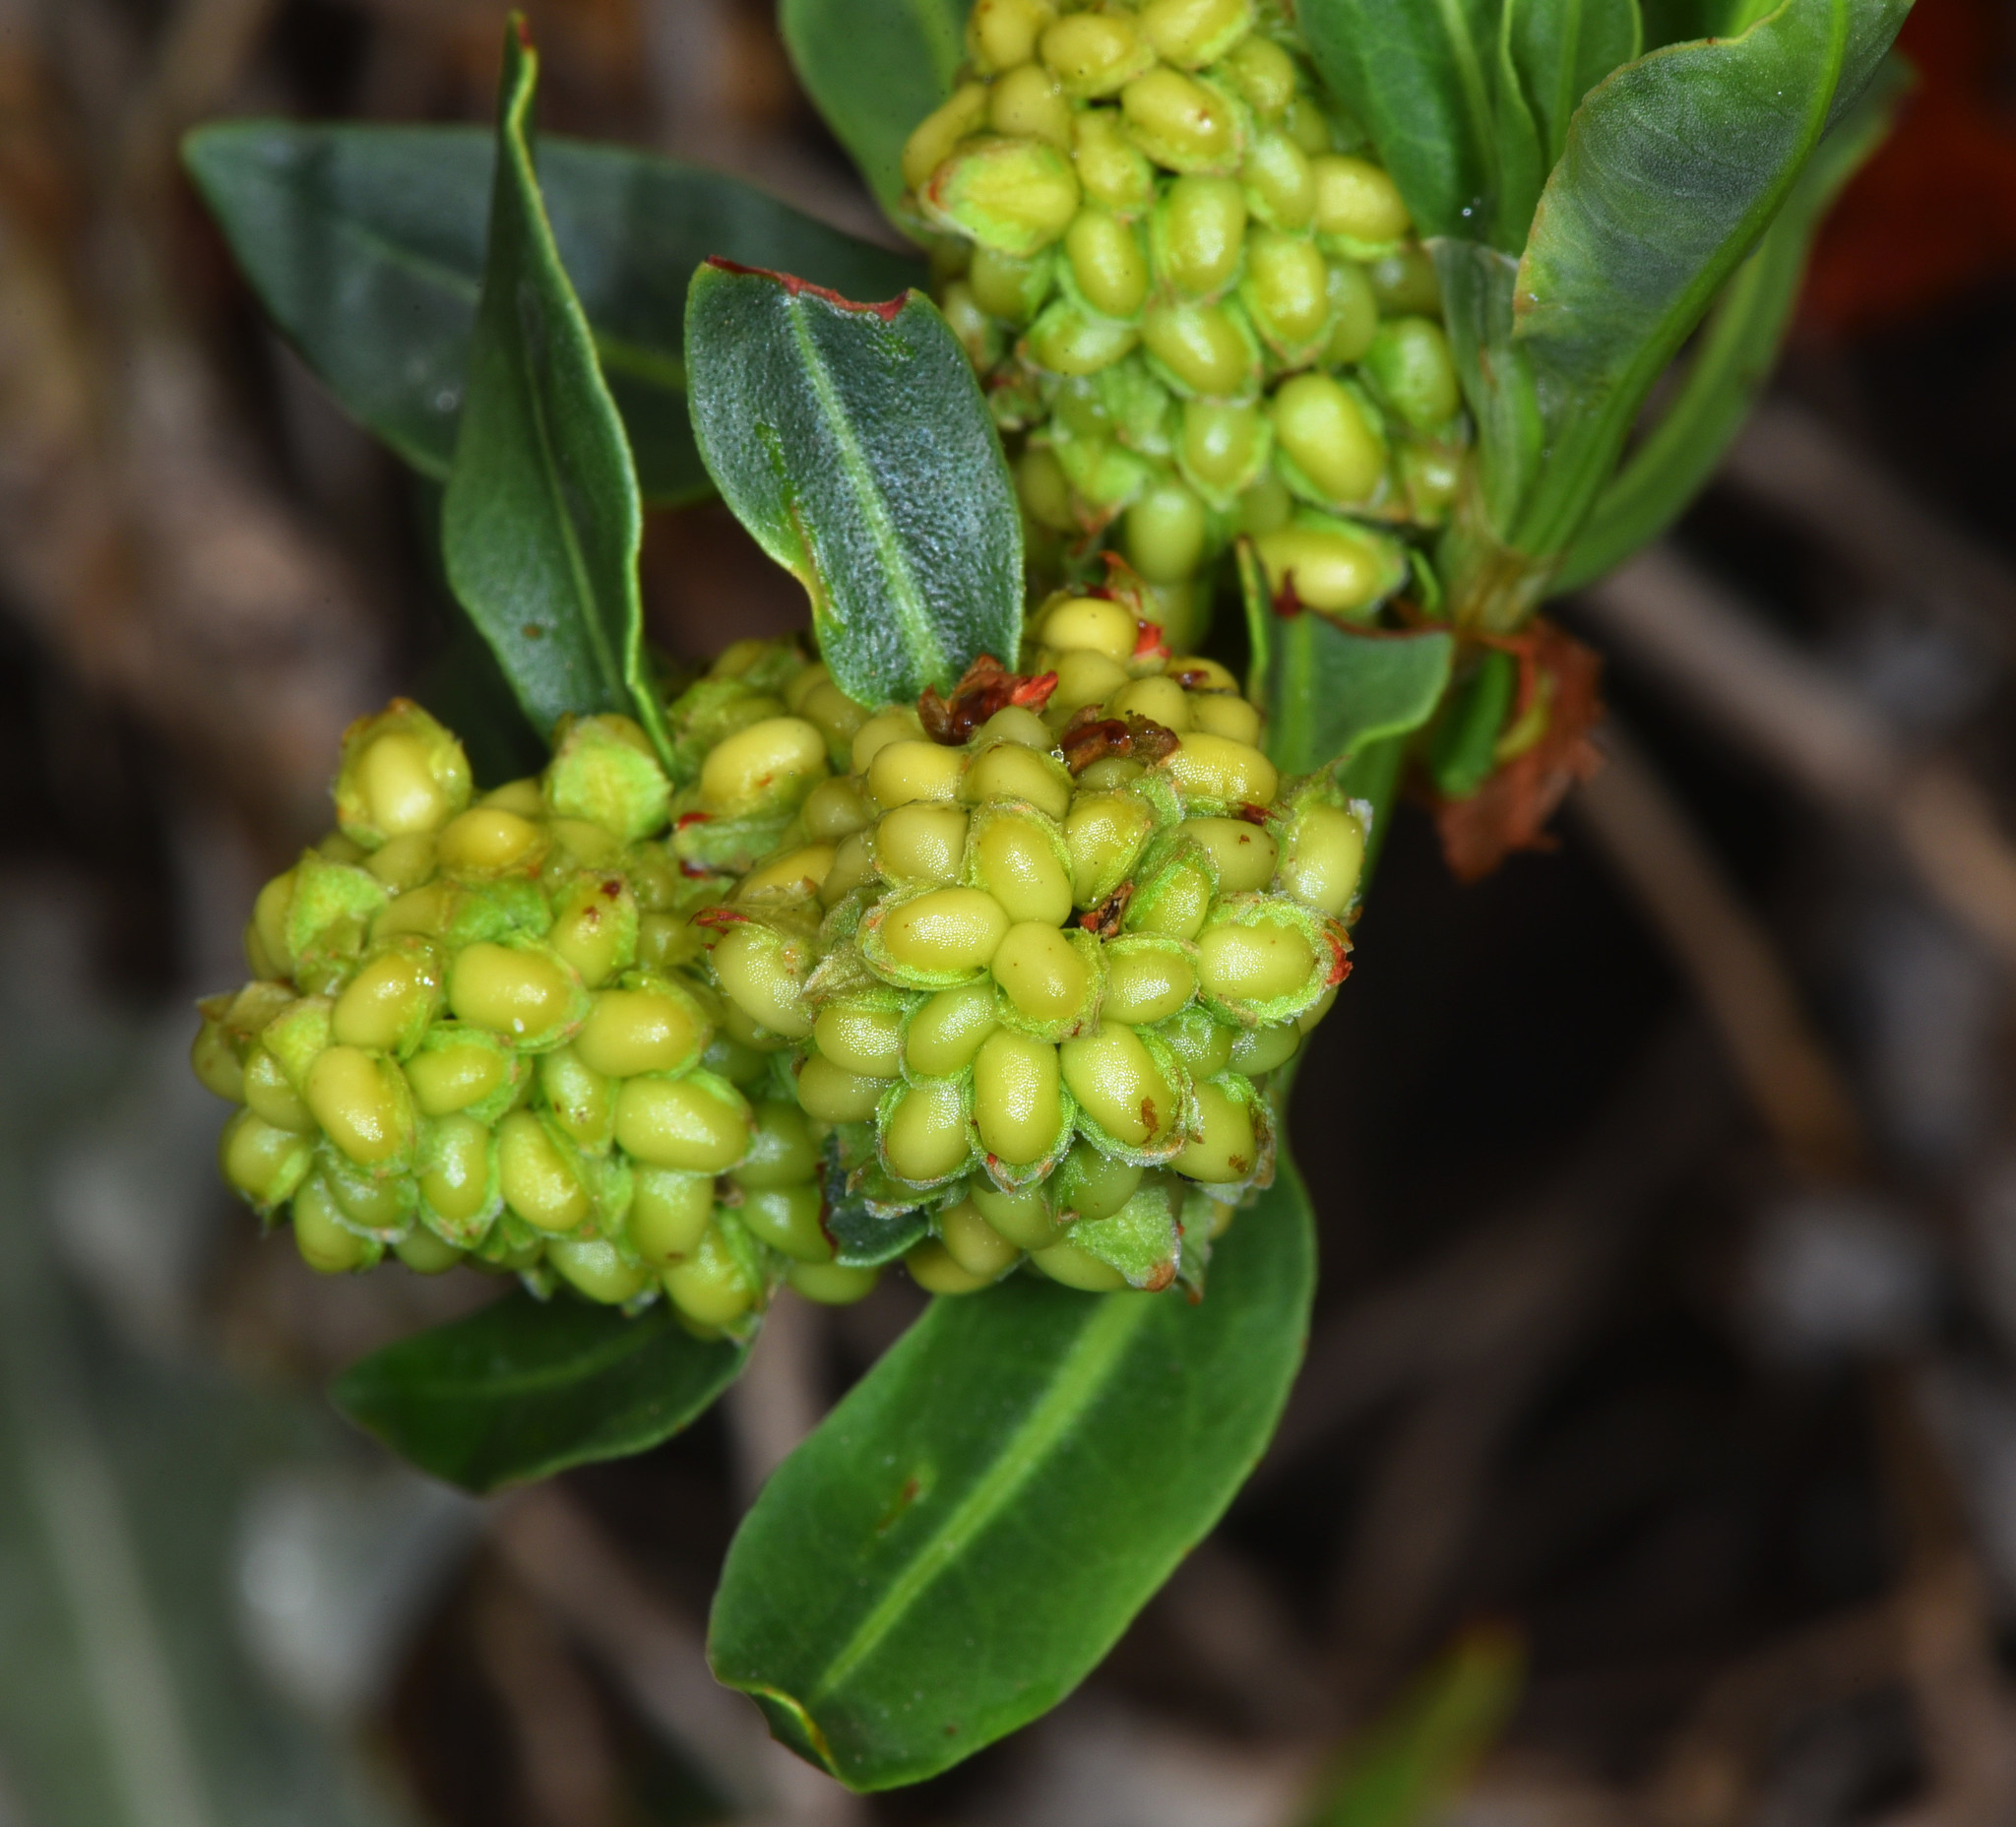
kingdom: Plantae
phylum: Tracheophyta
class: Magnoliopsida
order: Caryophyllales
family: Polygonaceae
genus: Rumex
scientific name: Rumex crassus
